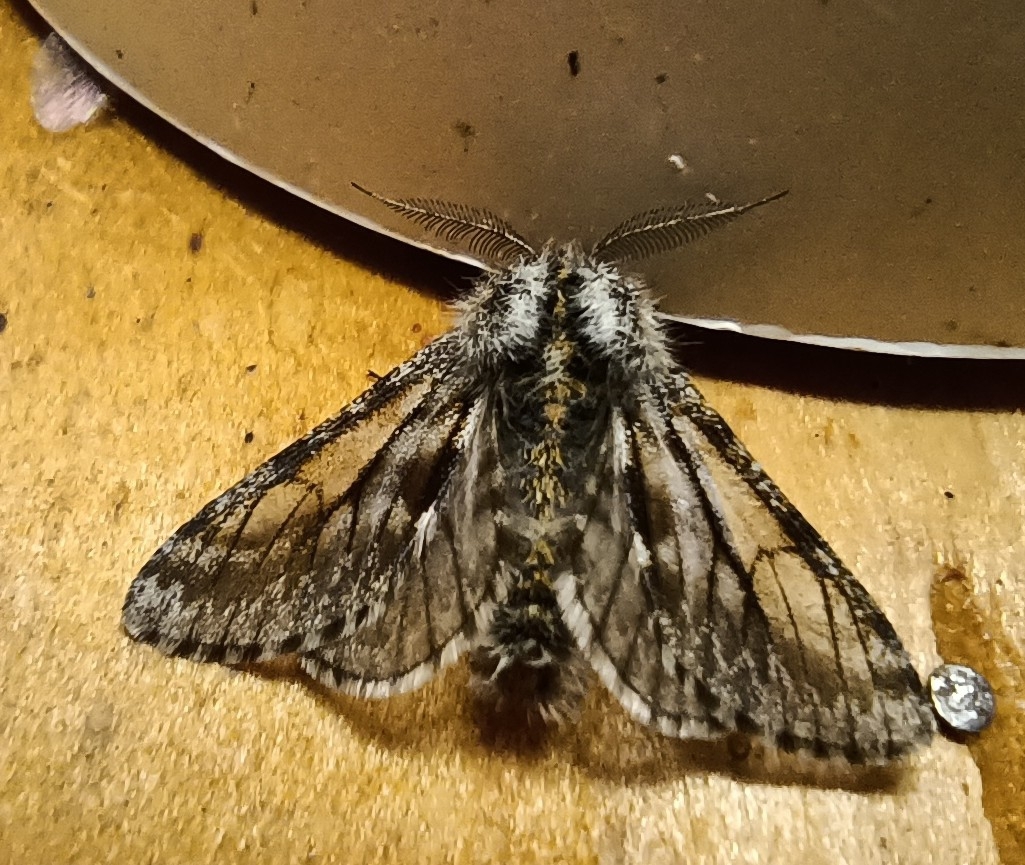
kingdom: Animalia
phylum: Arthropoda
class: Insecta
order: Lepidoptera
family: Geometridae
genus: Lycia
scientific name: Lycia pomonaria
